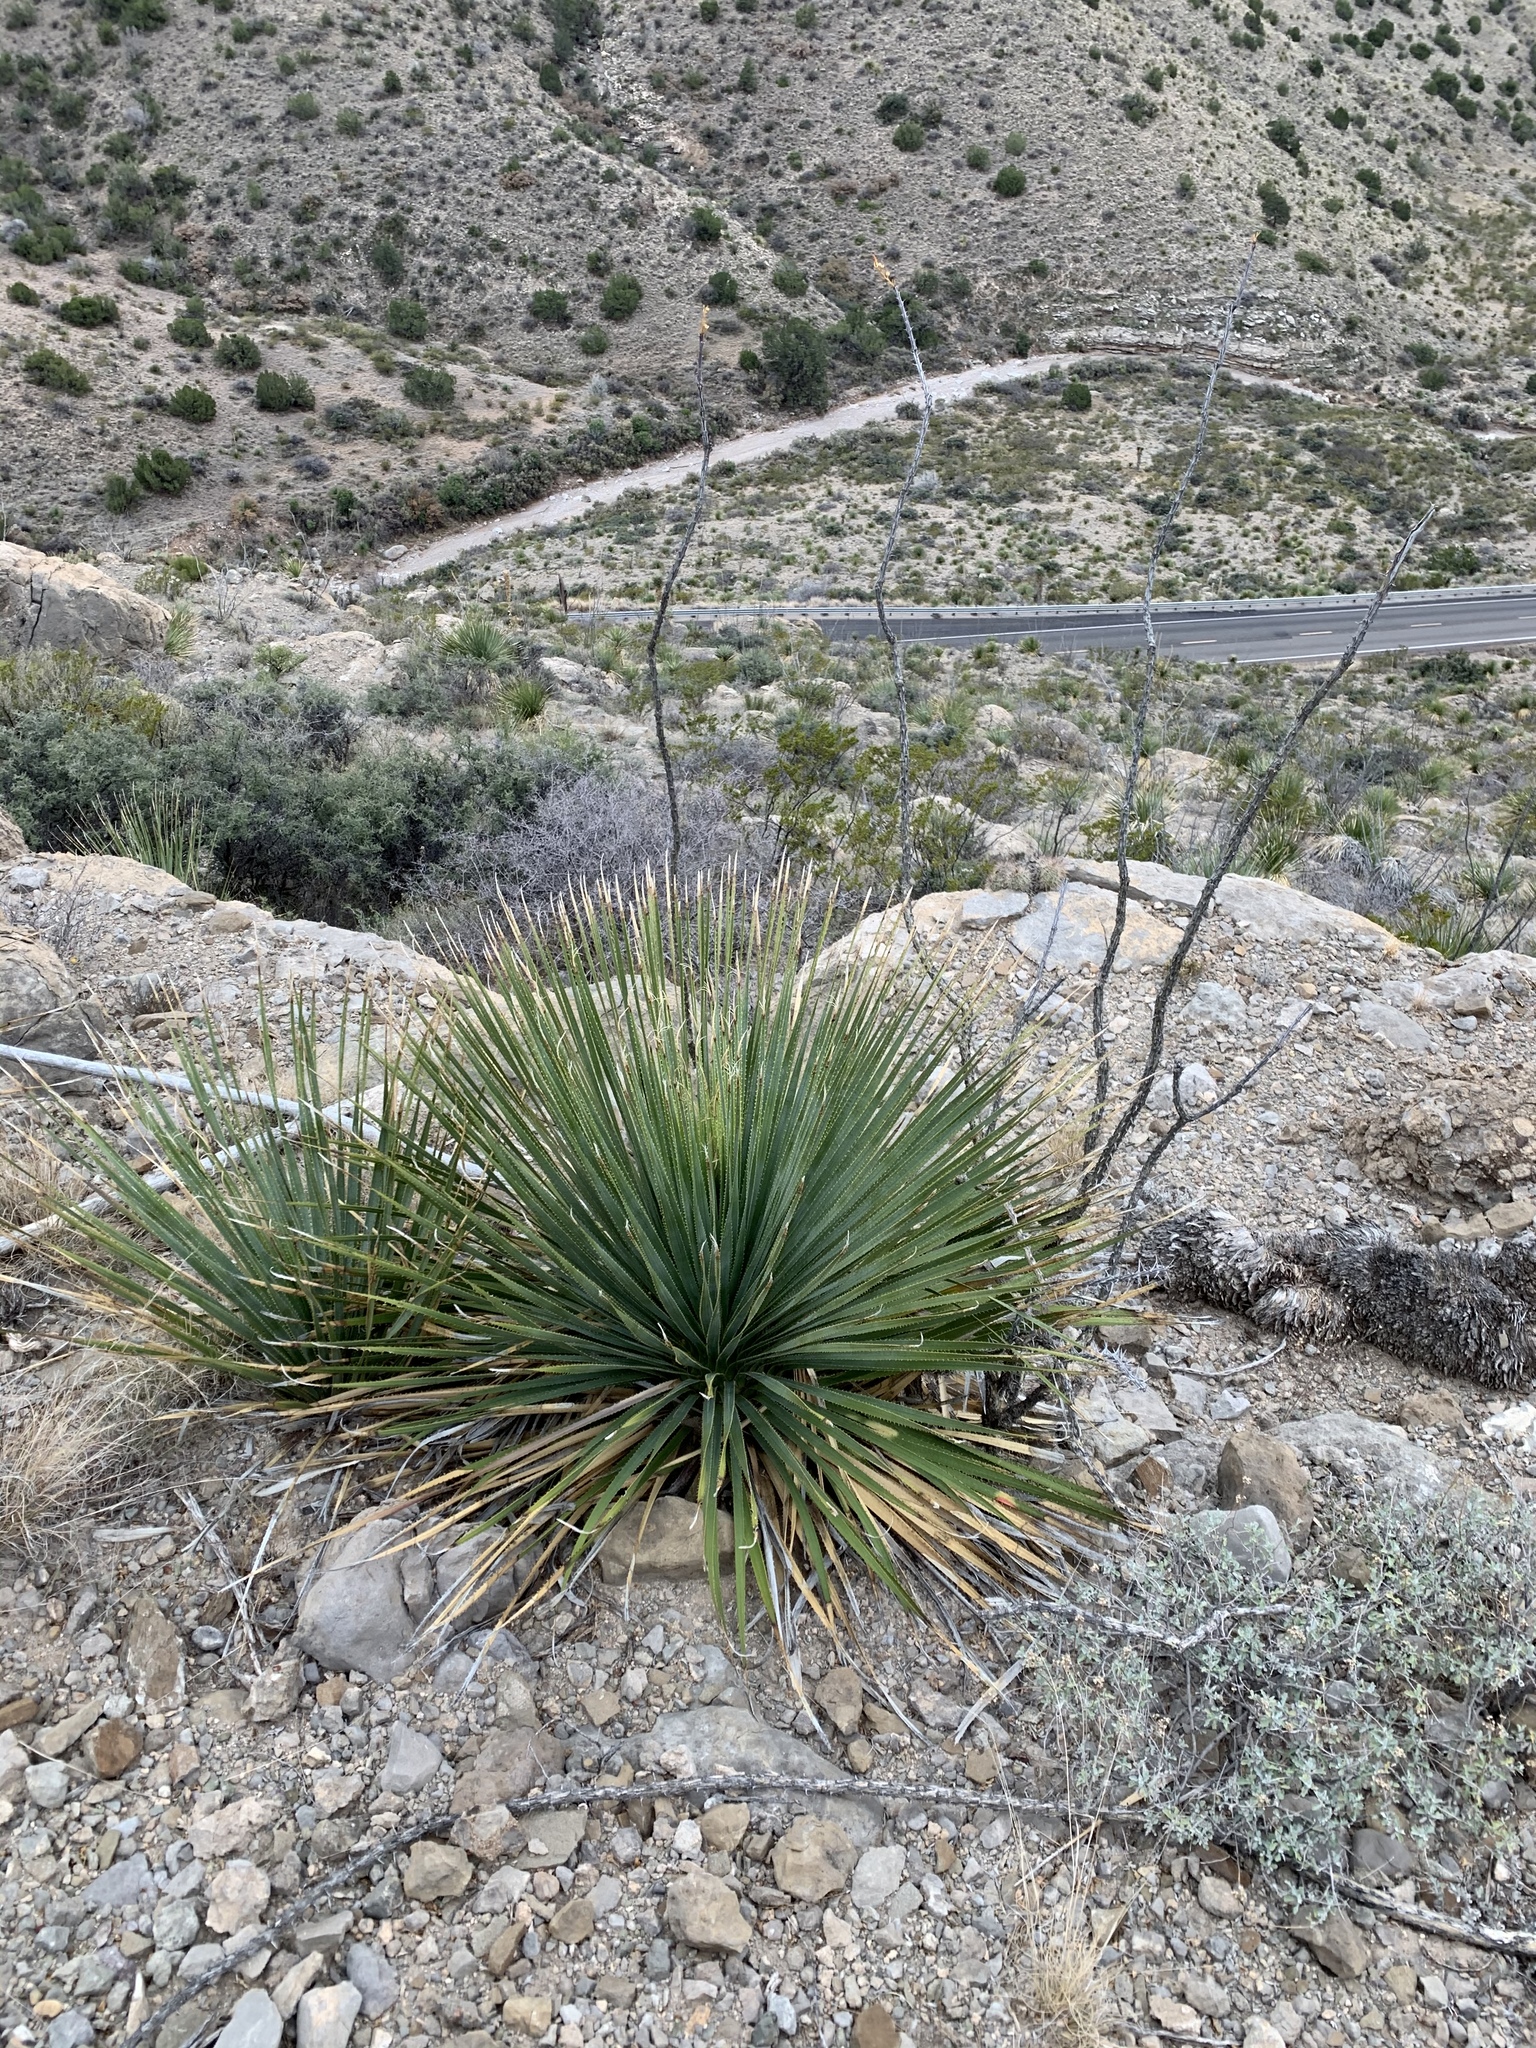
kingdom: Plantae
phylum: Tracheophyta
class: Liliopsida
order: Asparagales
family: Asparagaceae
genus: Dasylirion
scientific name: Dasylirion wheeleri
